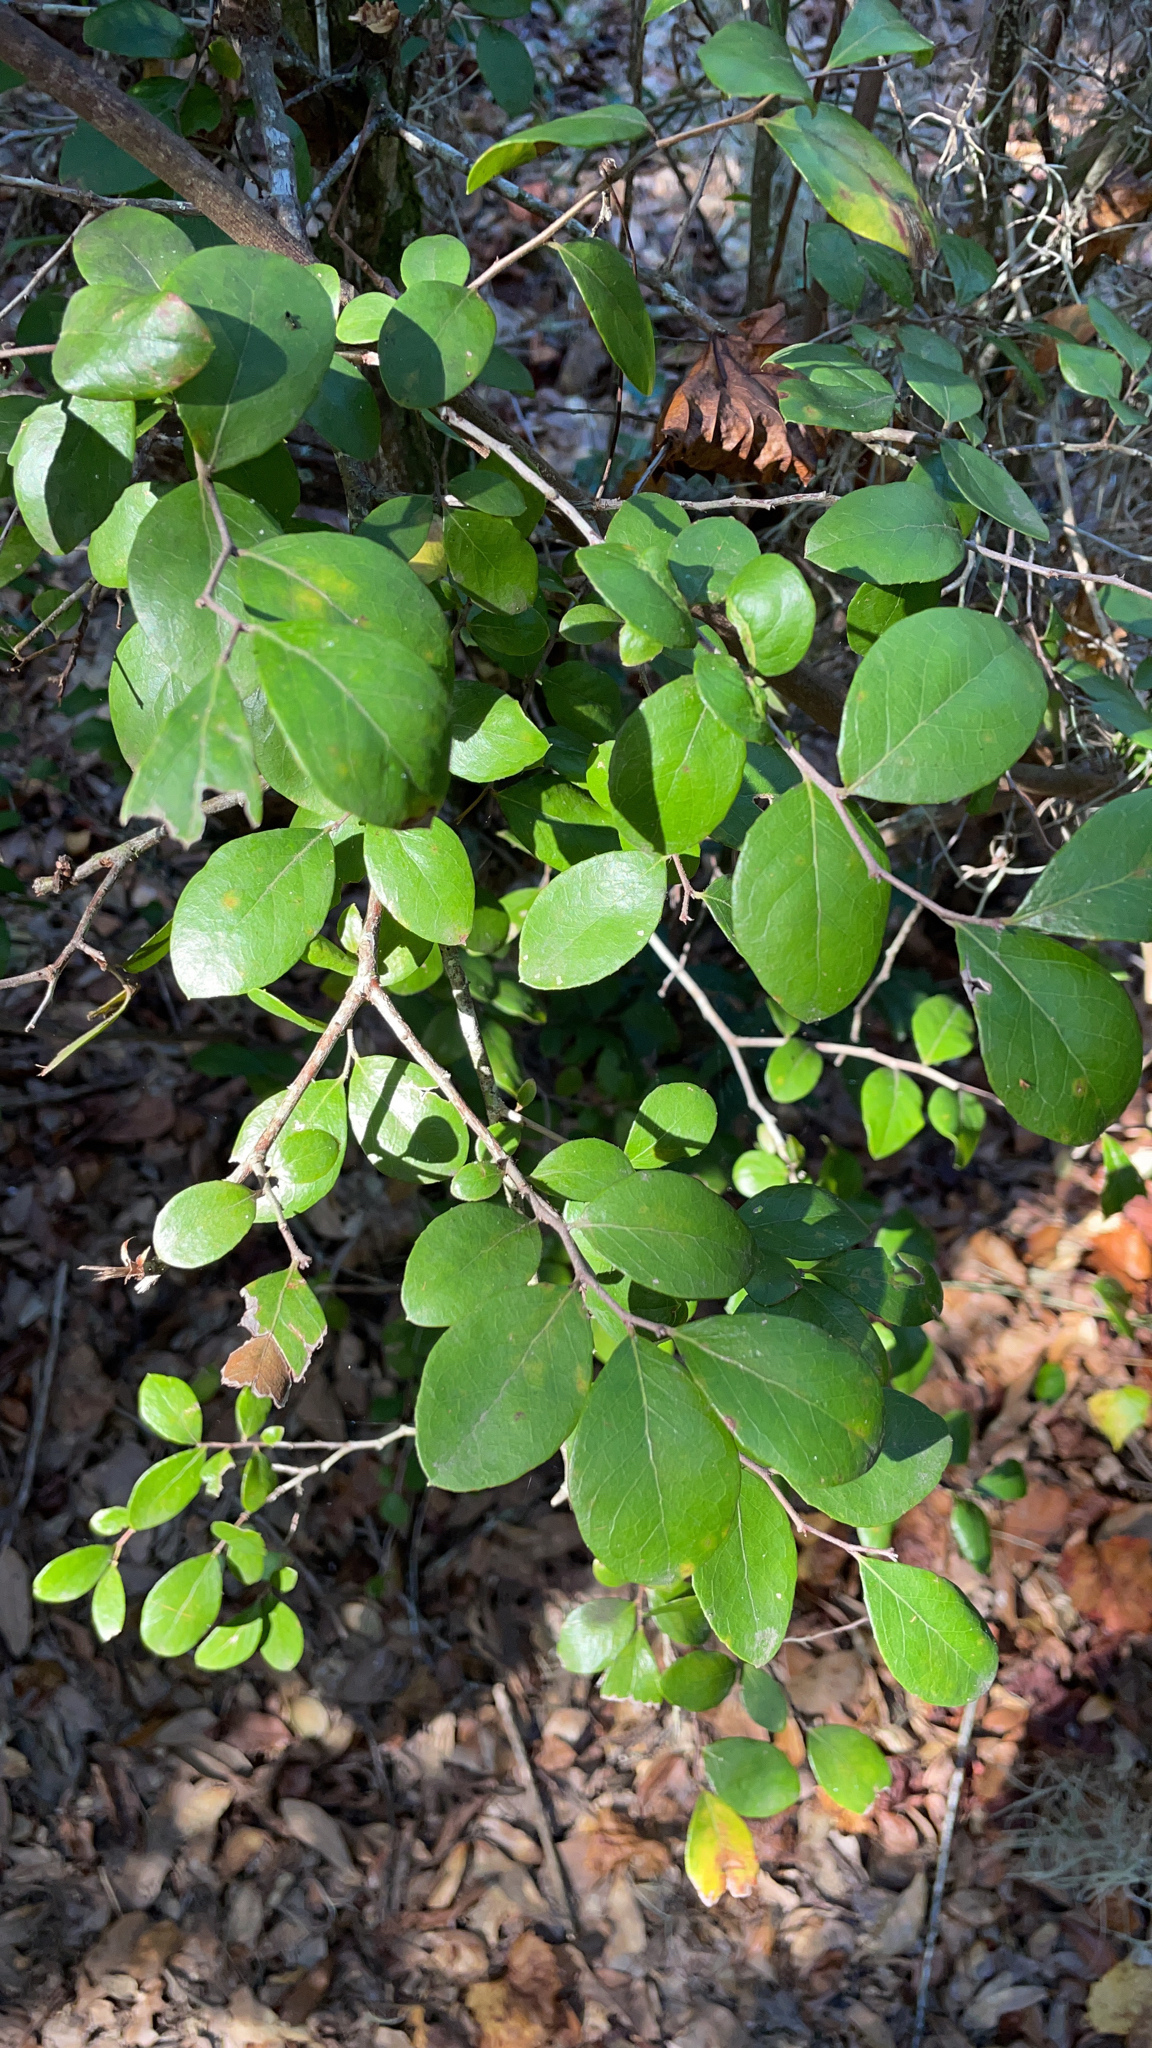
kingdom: Plantae
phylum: Tracheophyta
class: Magnoliopsida
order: Ericales
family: Ericaceae
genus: Vaccinium
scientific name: Vaccinium arboreum
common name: Farkleberry
